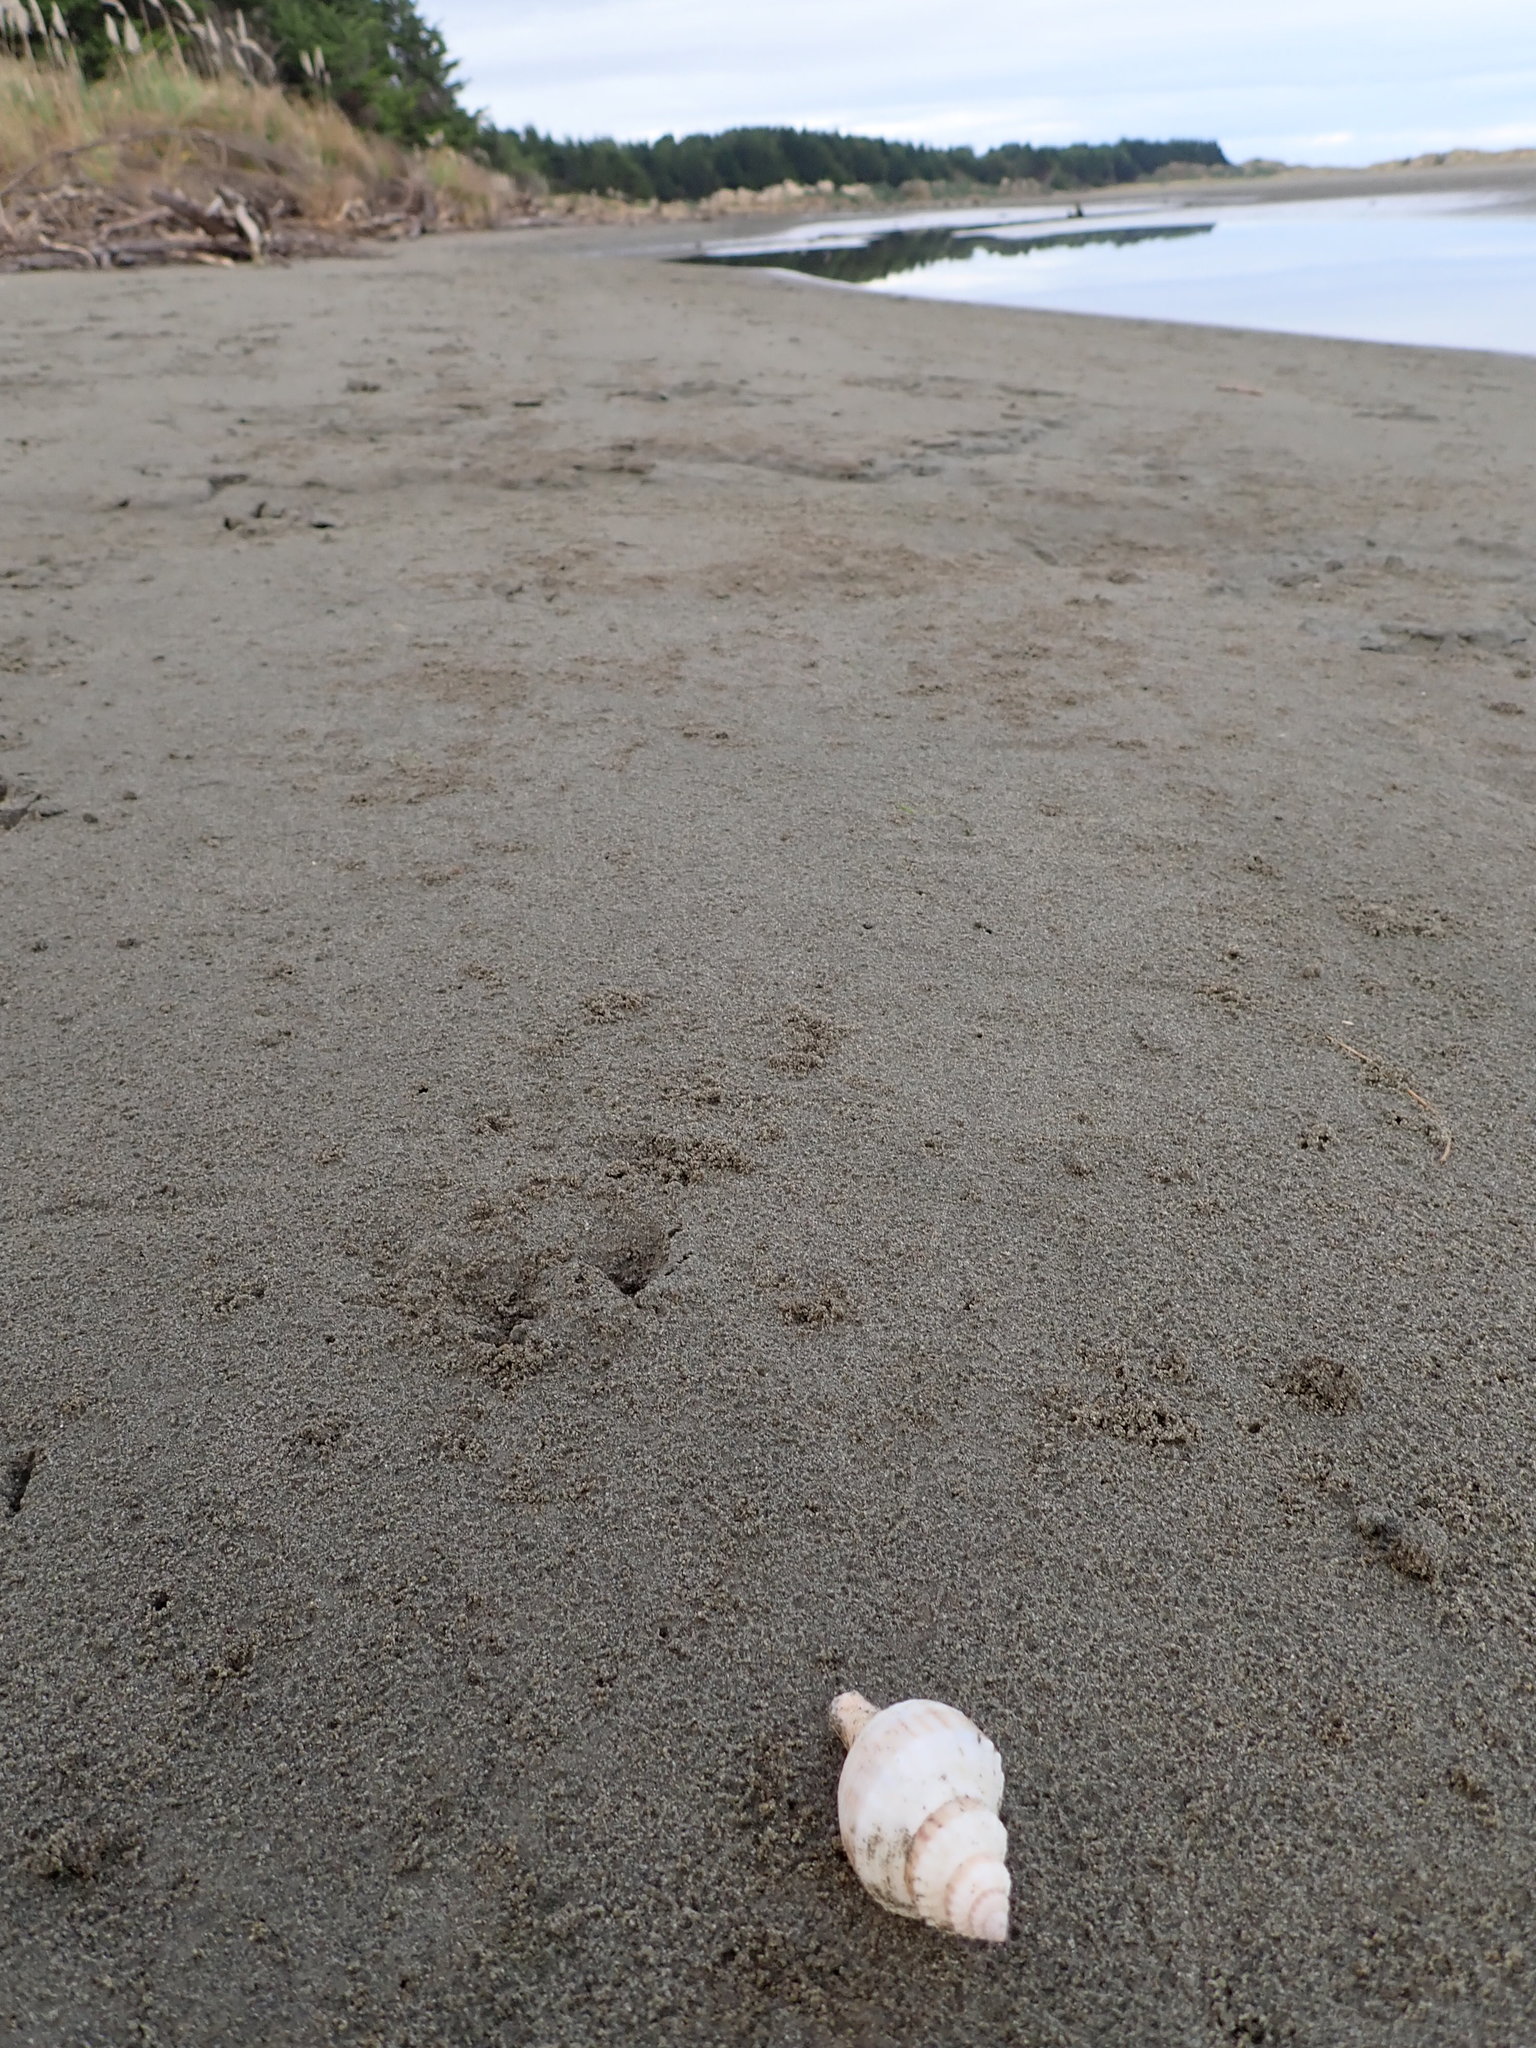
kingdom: Animalia
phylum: Mollusca
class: Gastropoda
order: Neogastropoda
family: Prosiphonidae
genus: Austrofusus
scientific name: Austrofusus glans
